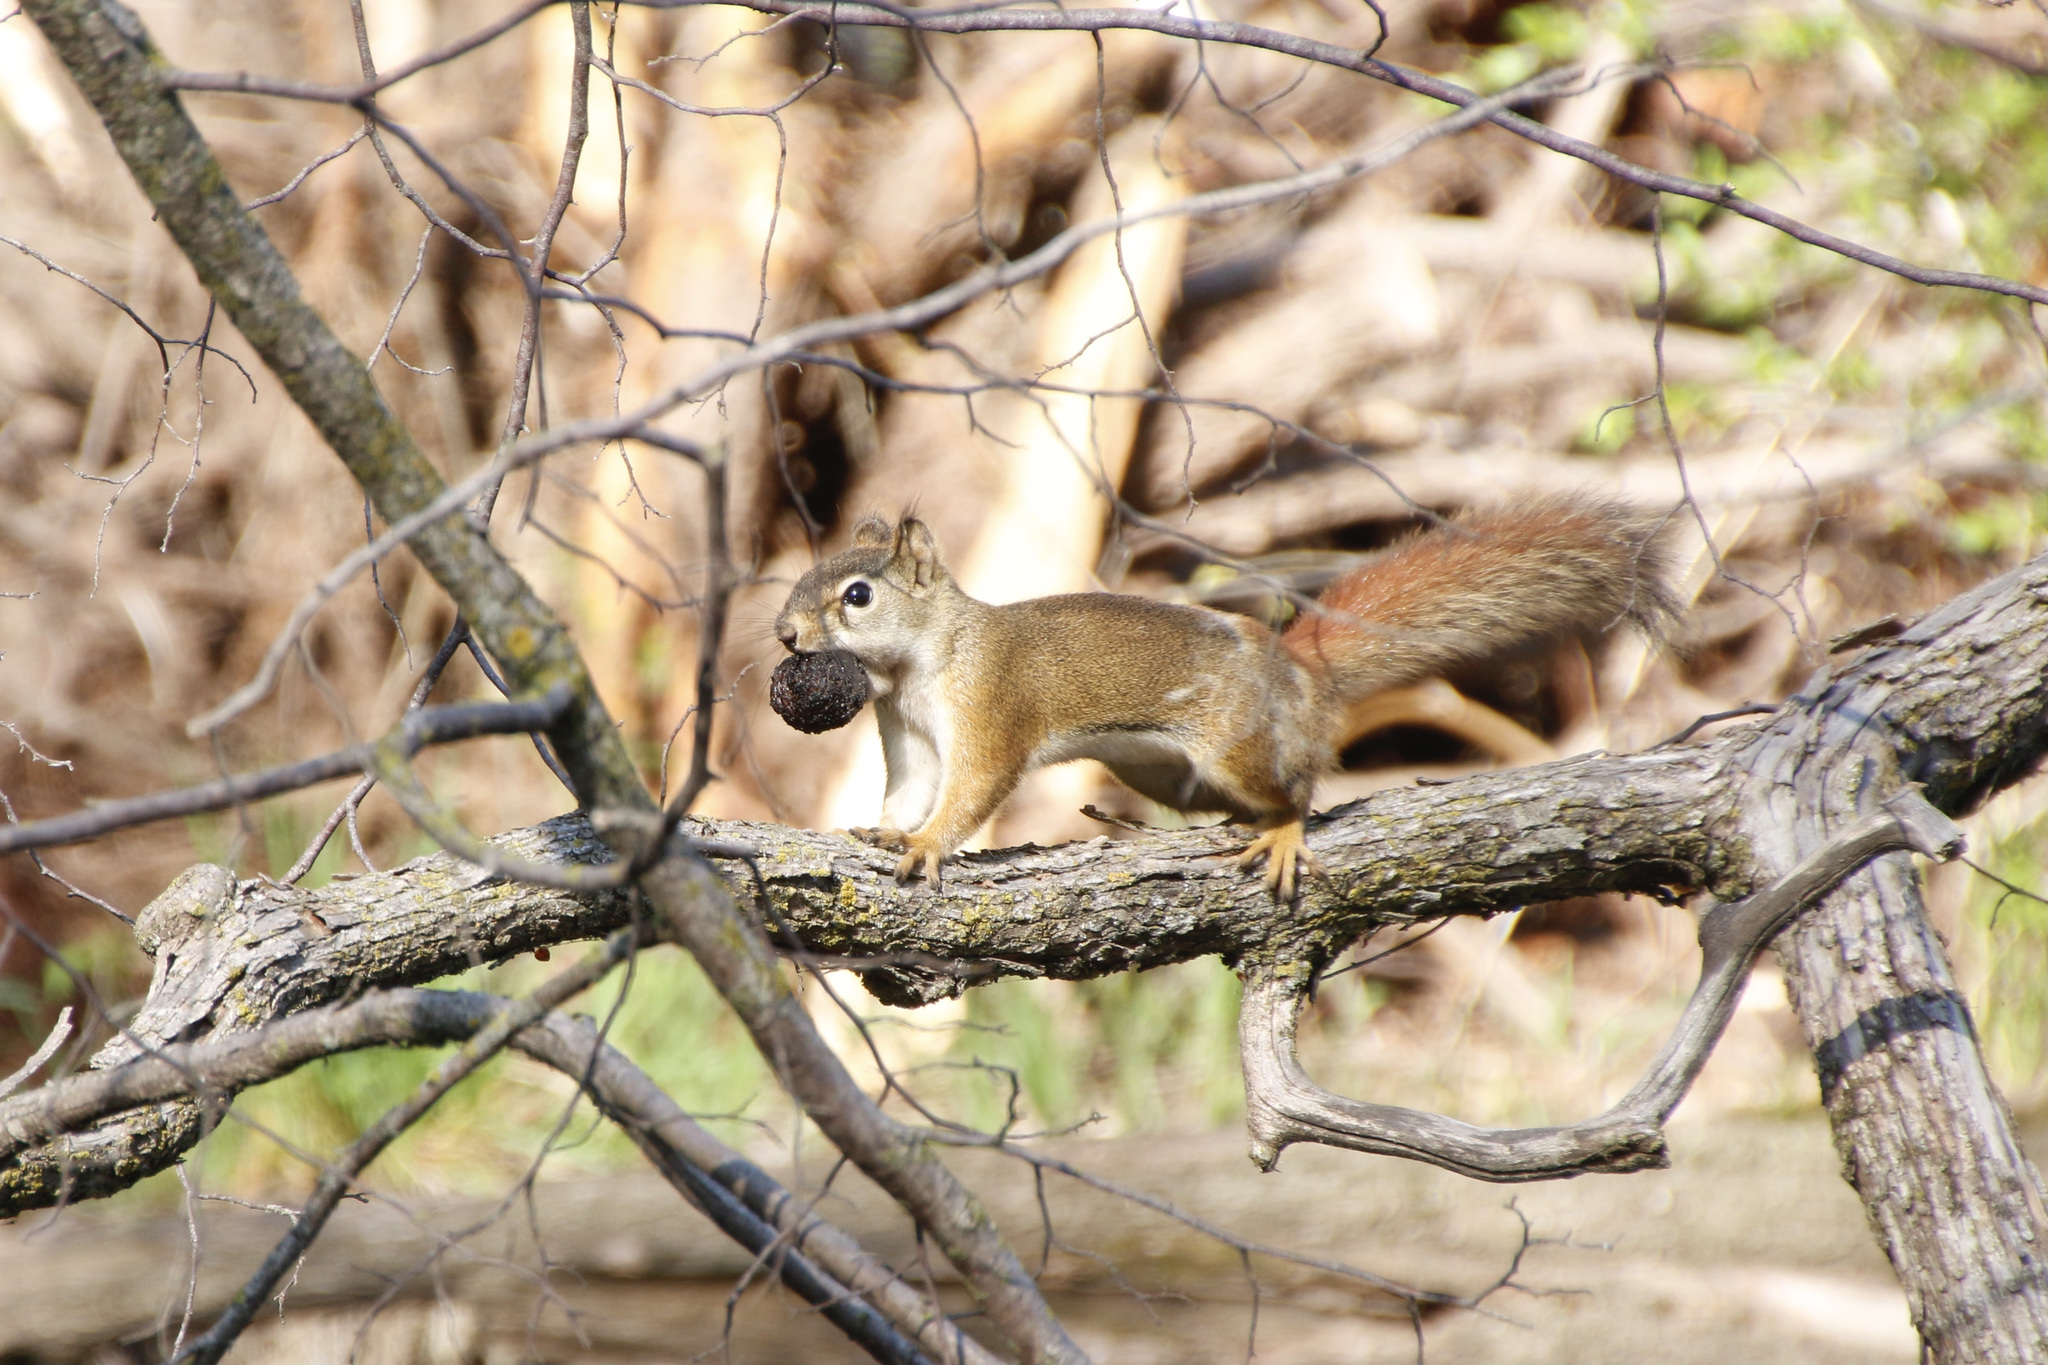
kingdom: Animalia
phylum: Chordata
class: Mammalia
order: Rodentia
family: Sciuridae
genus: Tamiasciurus
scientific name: Tamiasciurus hudsonicus
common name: Red squirrel
